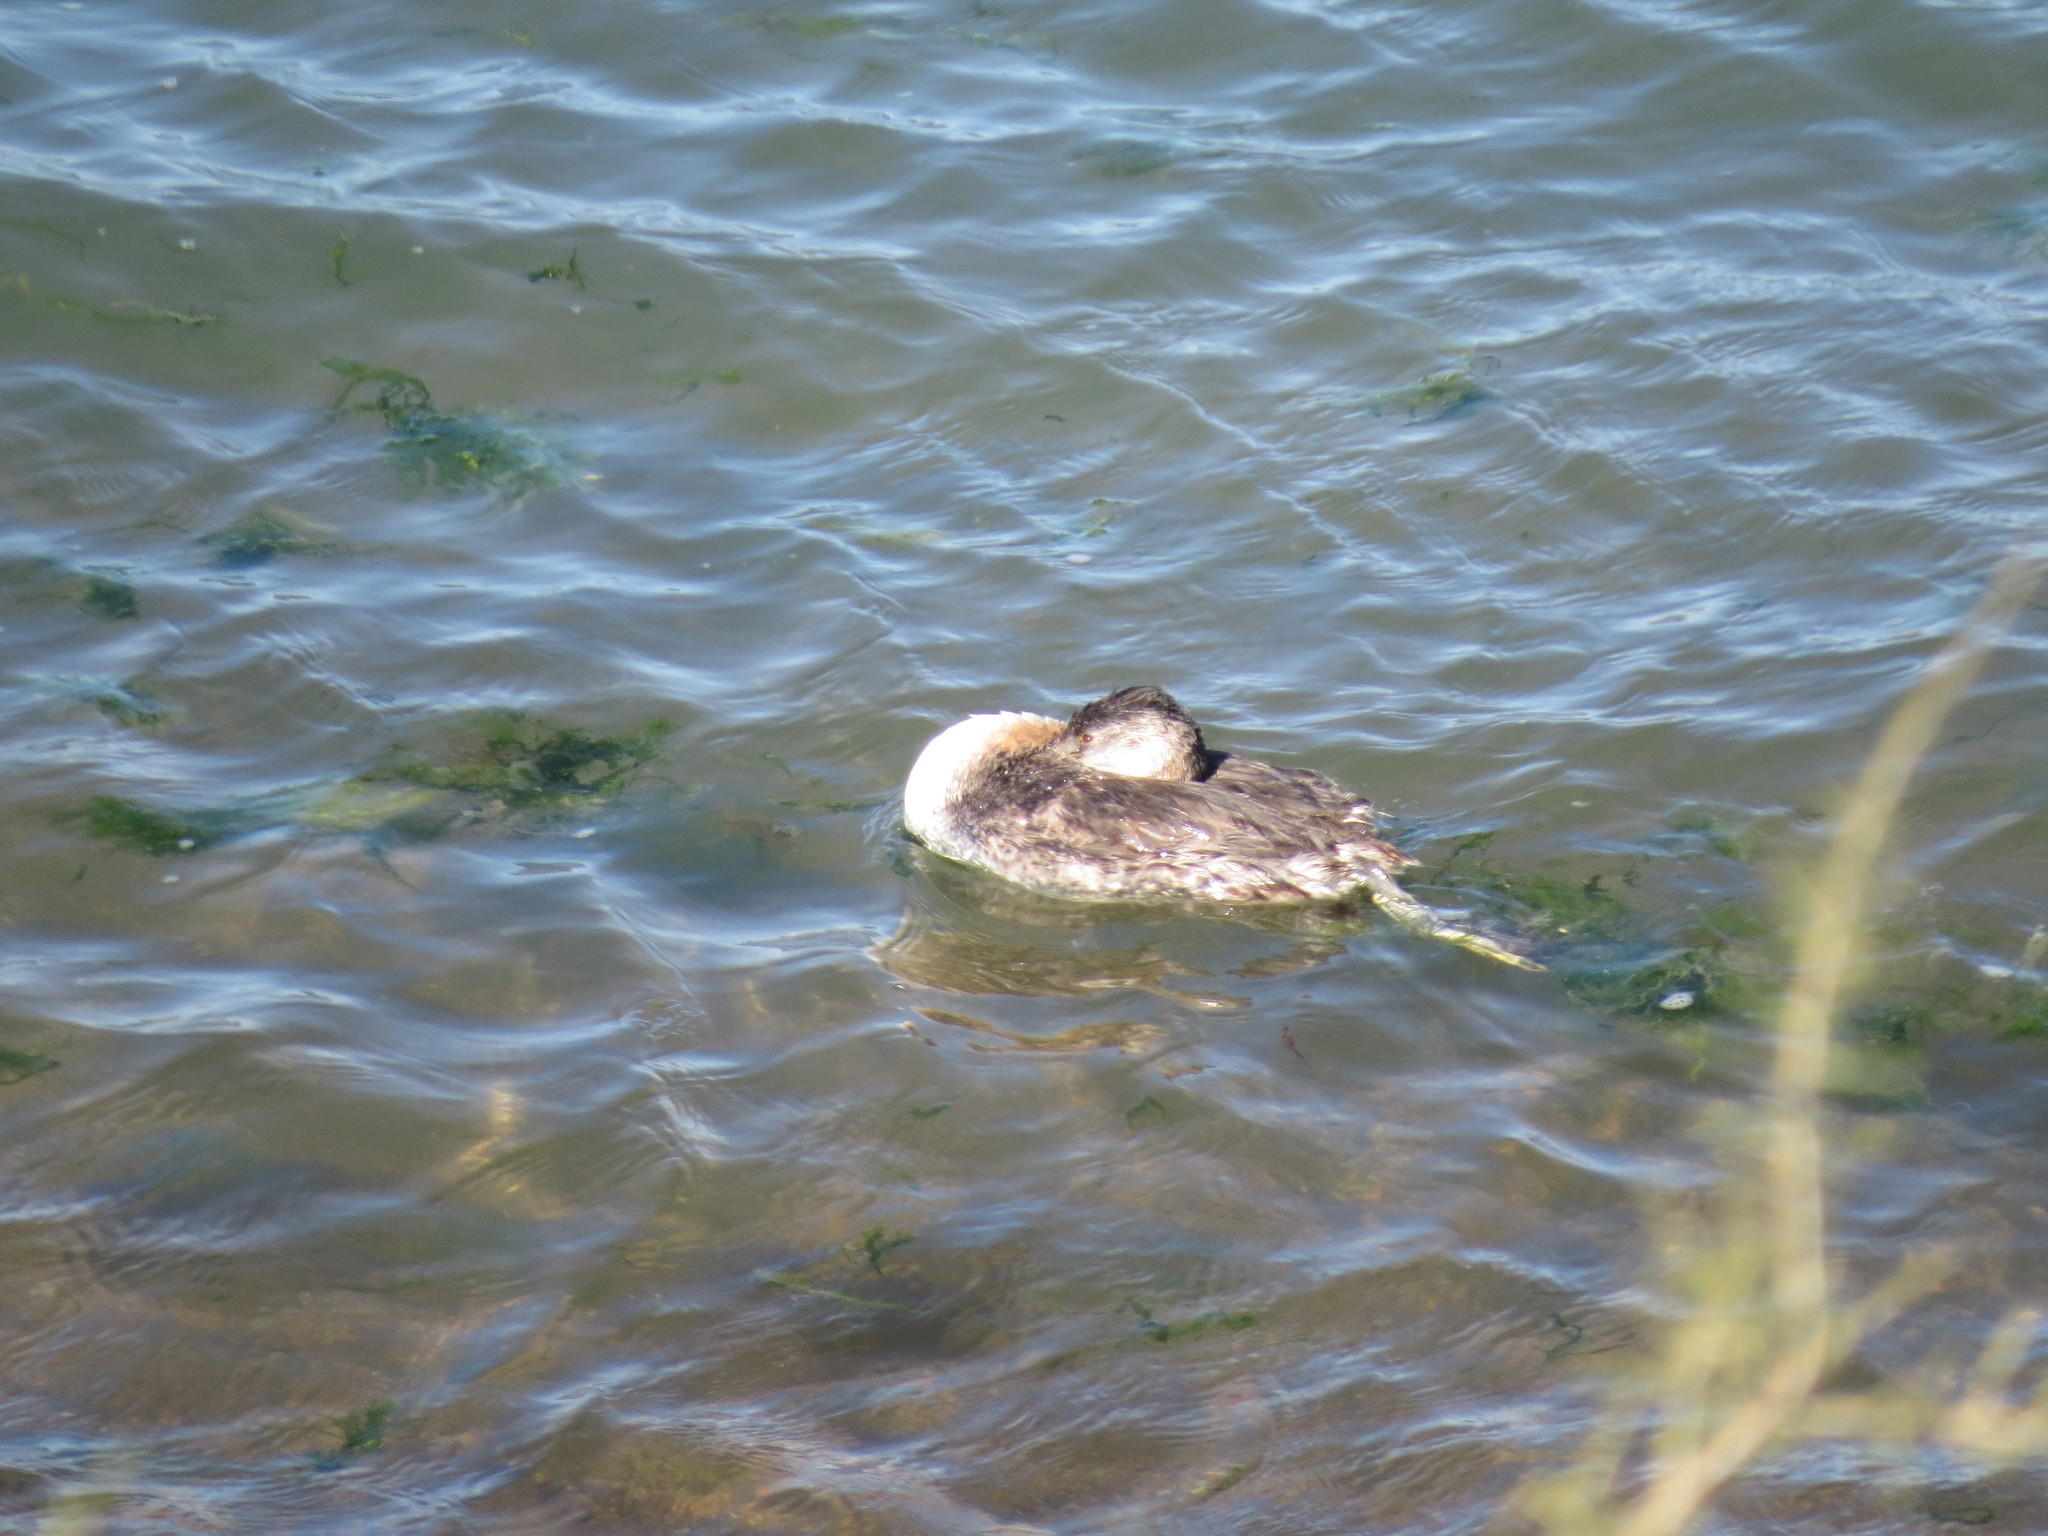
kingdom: Animalia
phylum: Chordata
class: Aves
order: Podicipediformes
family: Podicipedidae
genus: Podiceps
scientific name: Podiceps major
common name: Great grebe
